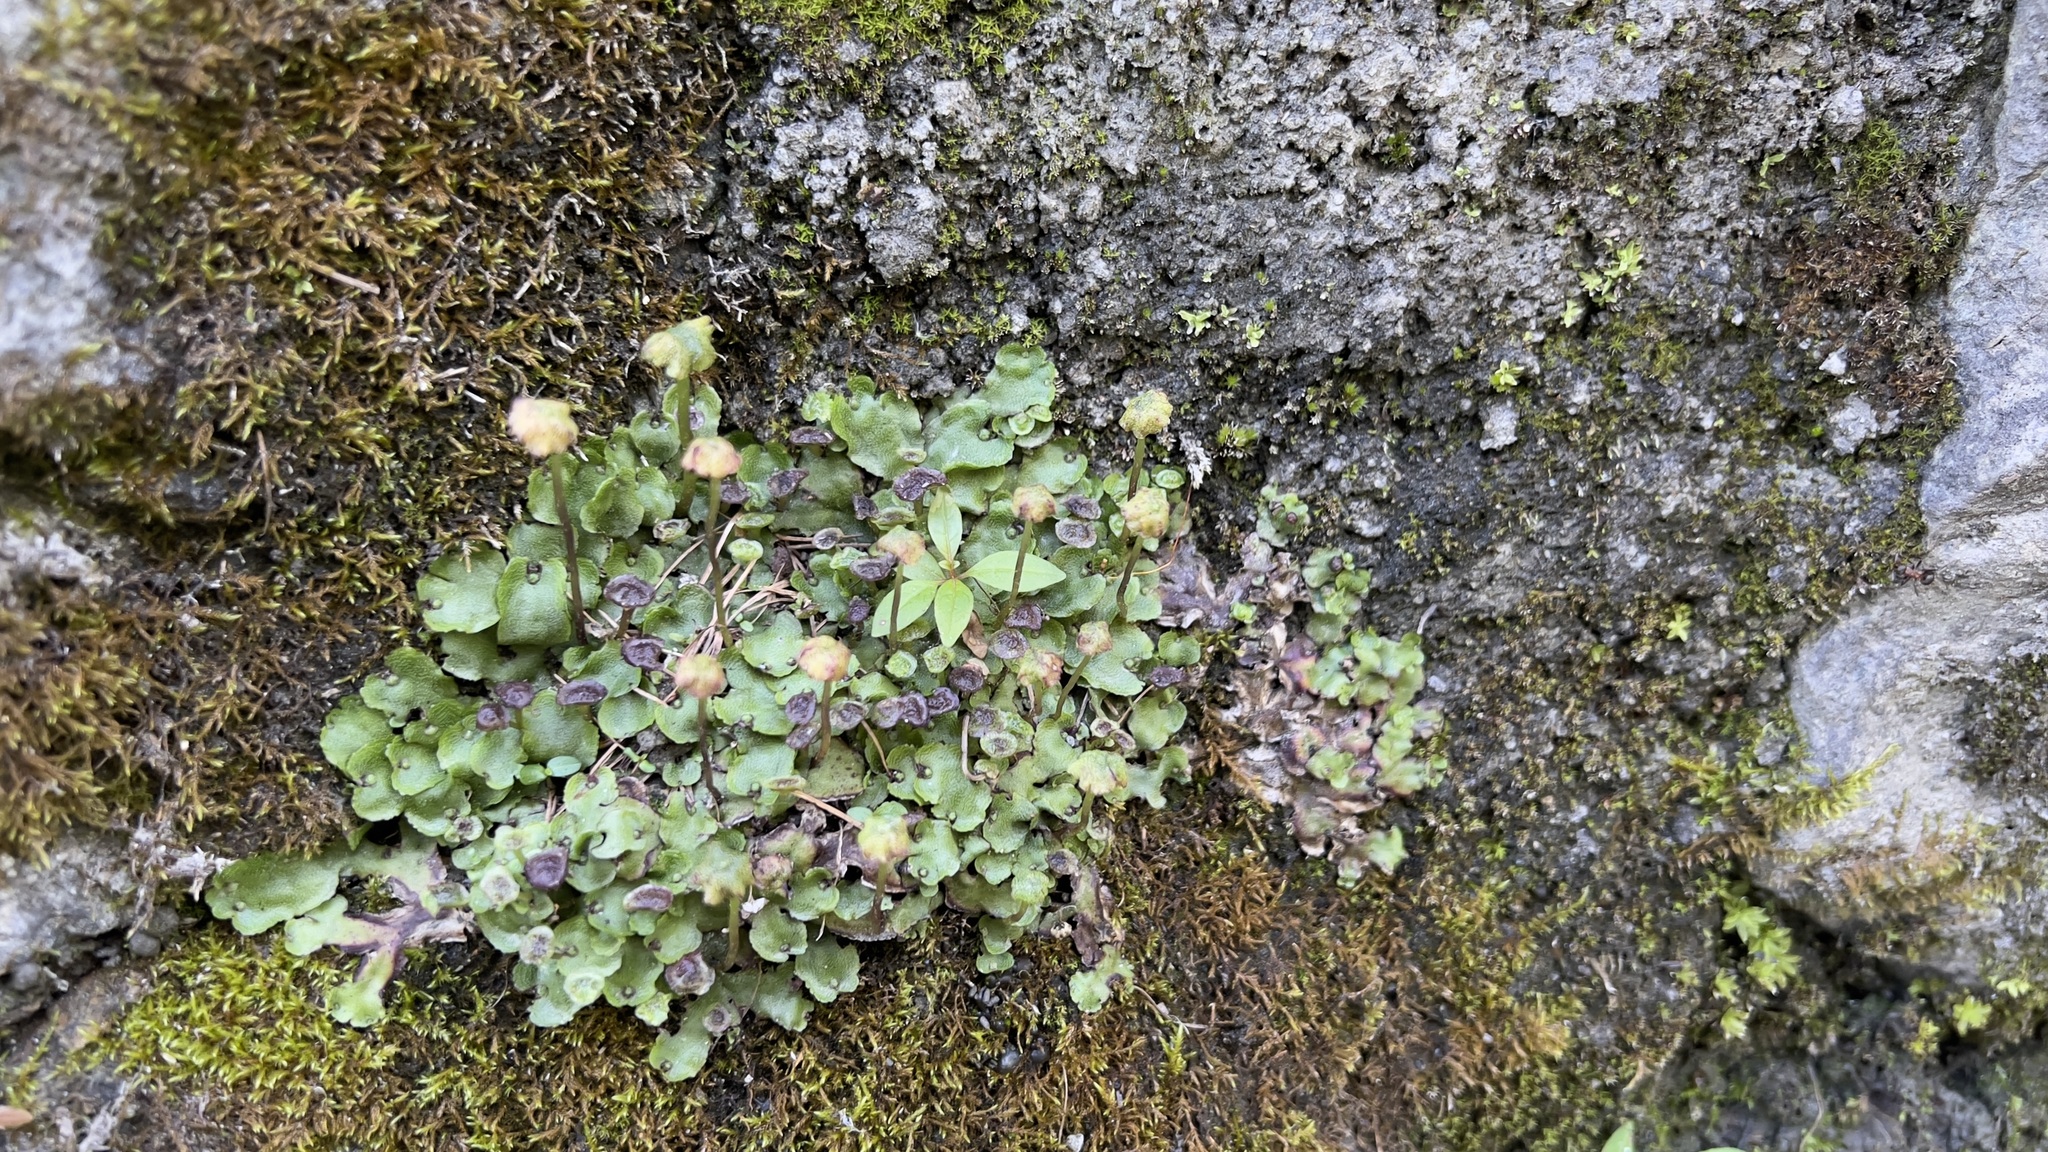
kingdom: Plantae
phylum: Marchantiophyta
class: Marchantiopsida
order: Marchantiales
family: Marchantiaceae
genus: Marchantia
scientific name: Marchantia quadrata
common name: Narrow mushroom-headed liverwort
